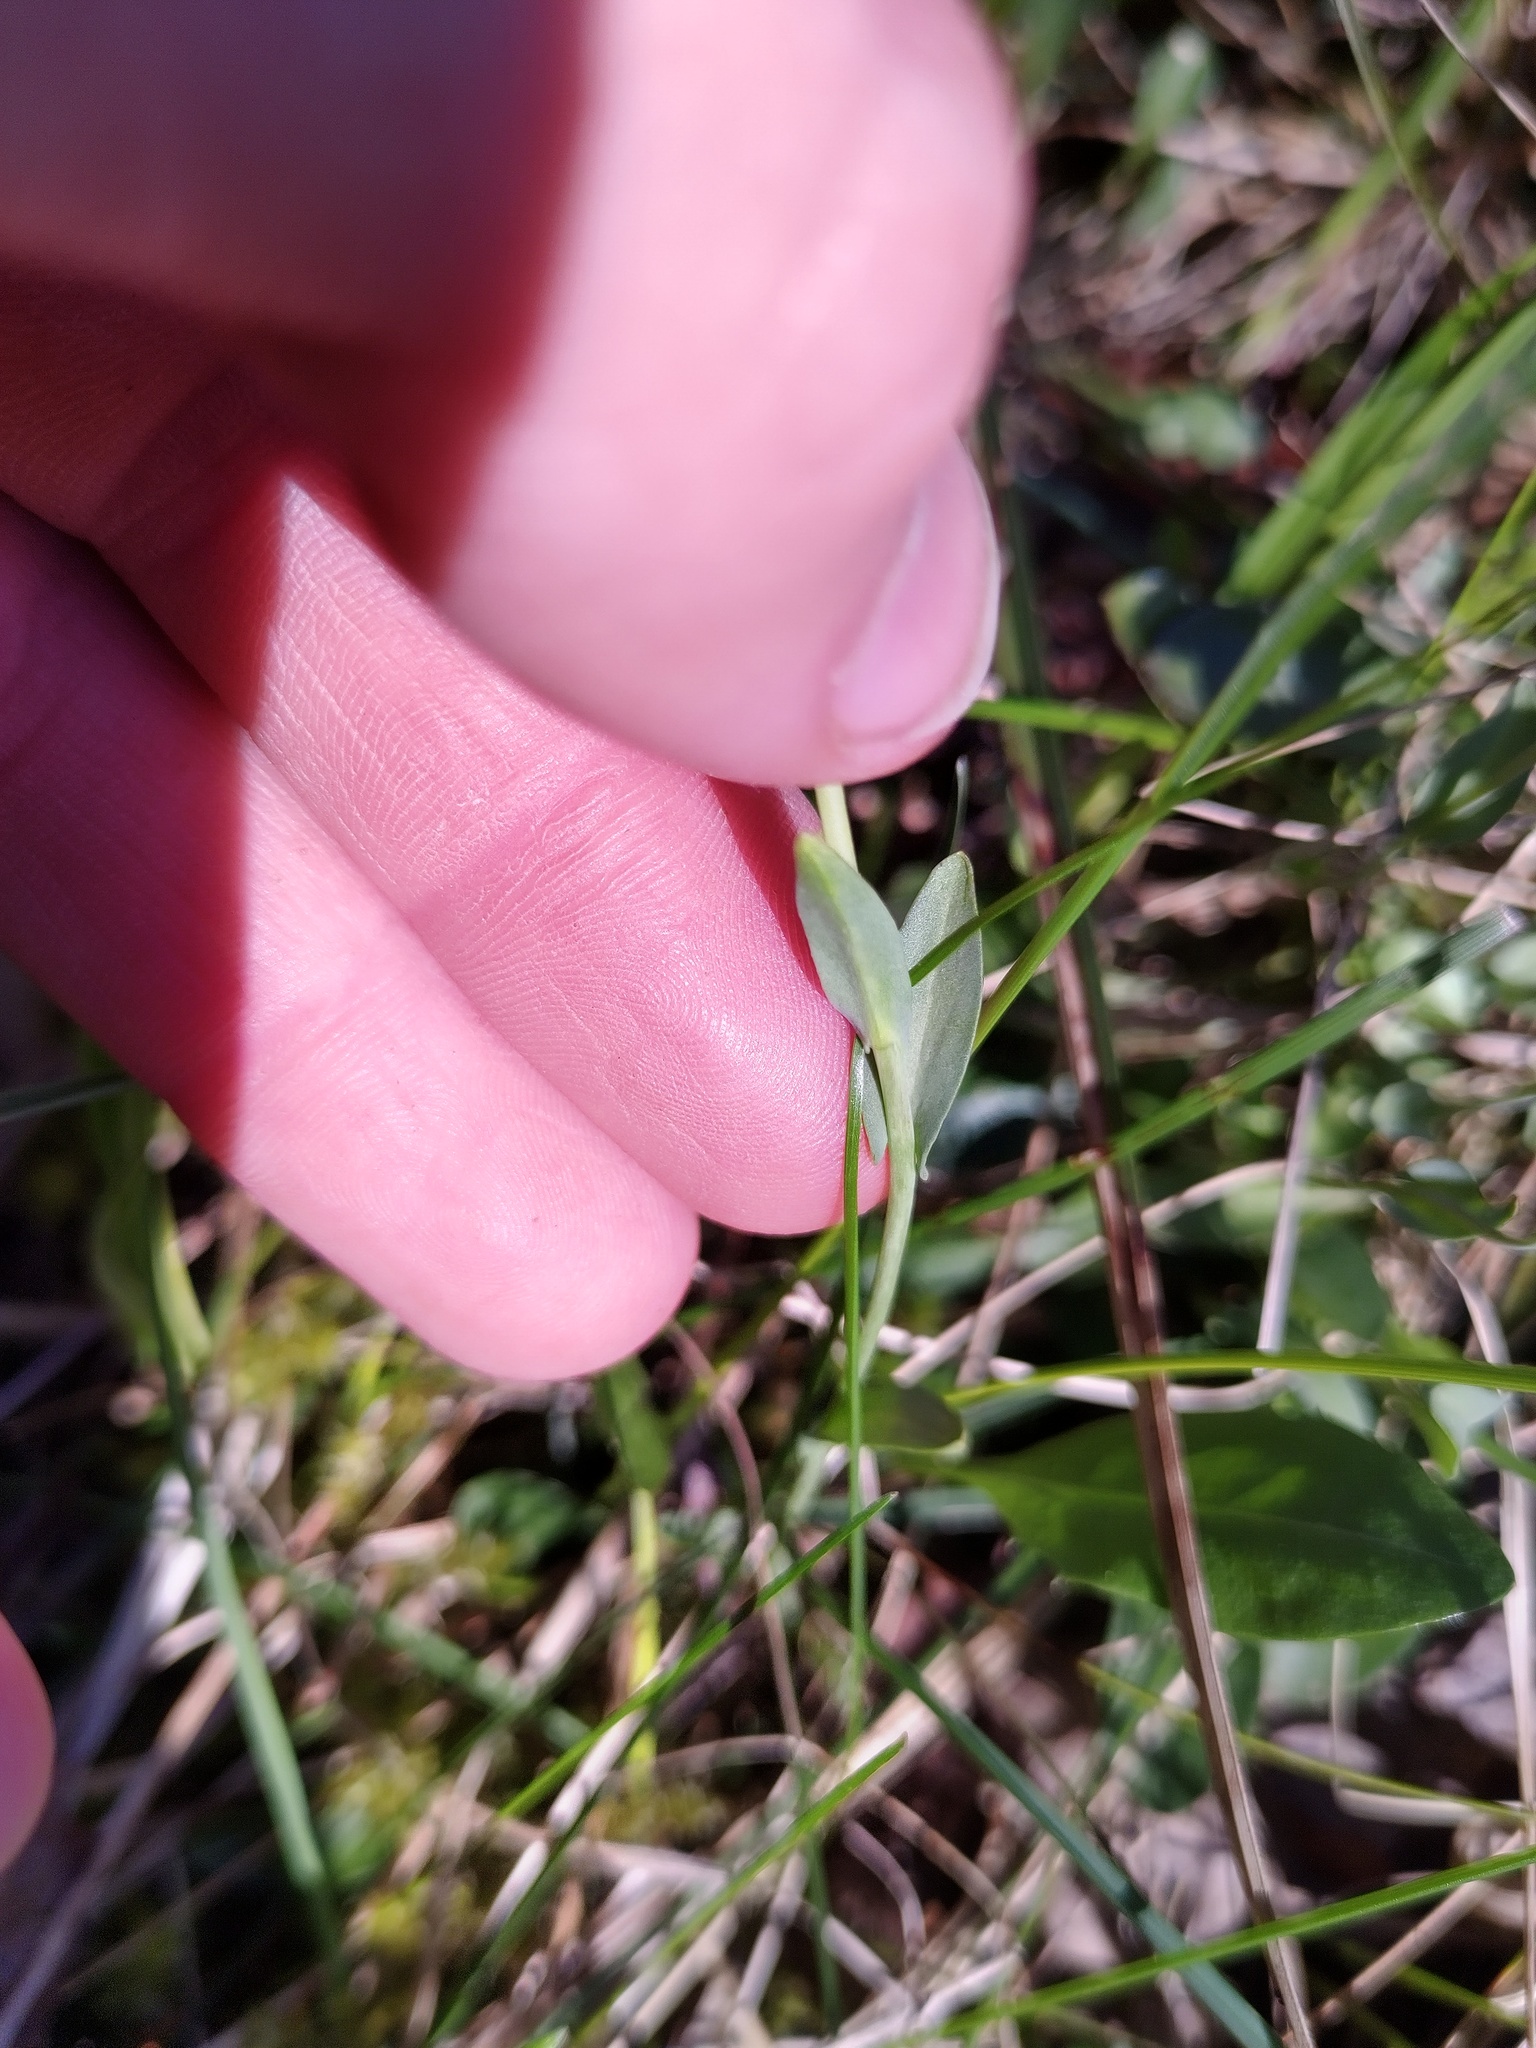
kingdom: Plantae
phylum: Tracheophyta
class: Magnoliopsida
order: Brassicales
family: Brassicaceae
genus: Noccaea
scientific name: Noccaea montana
